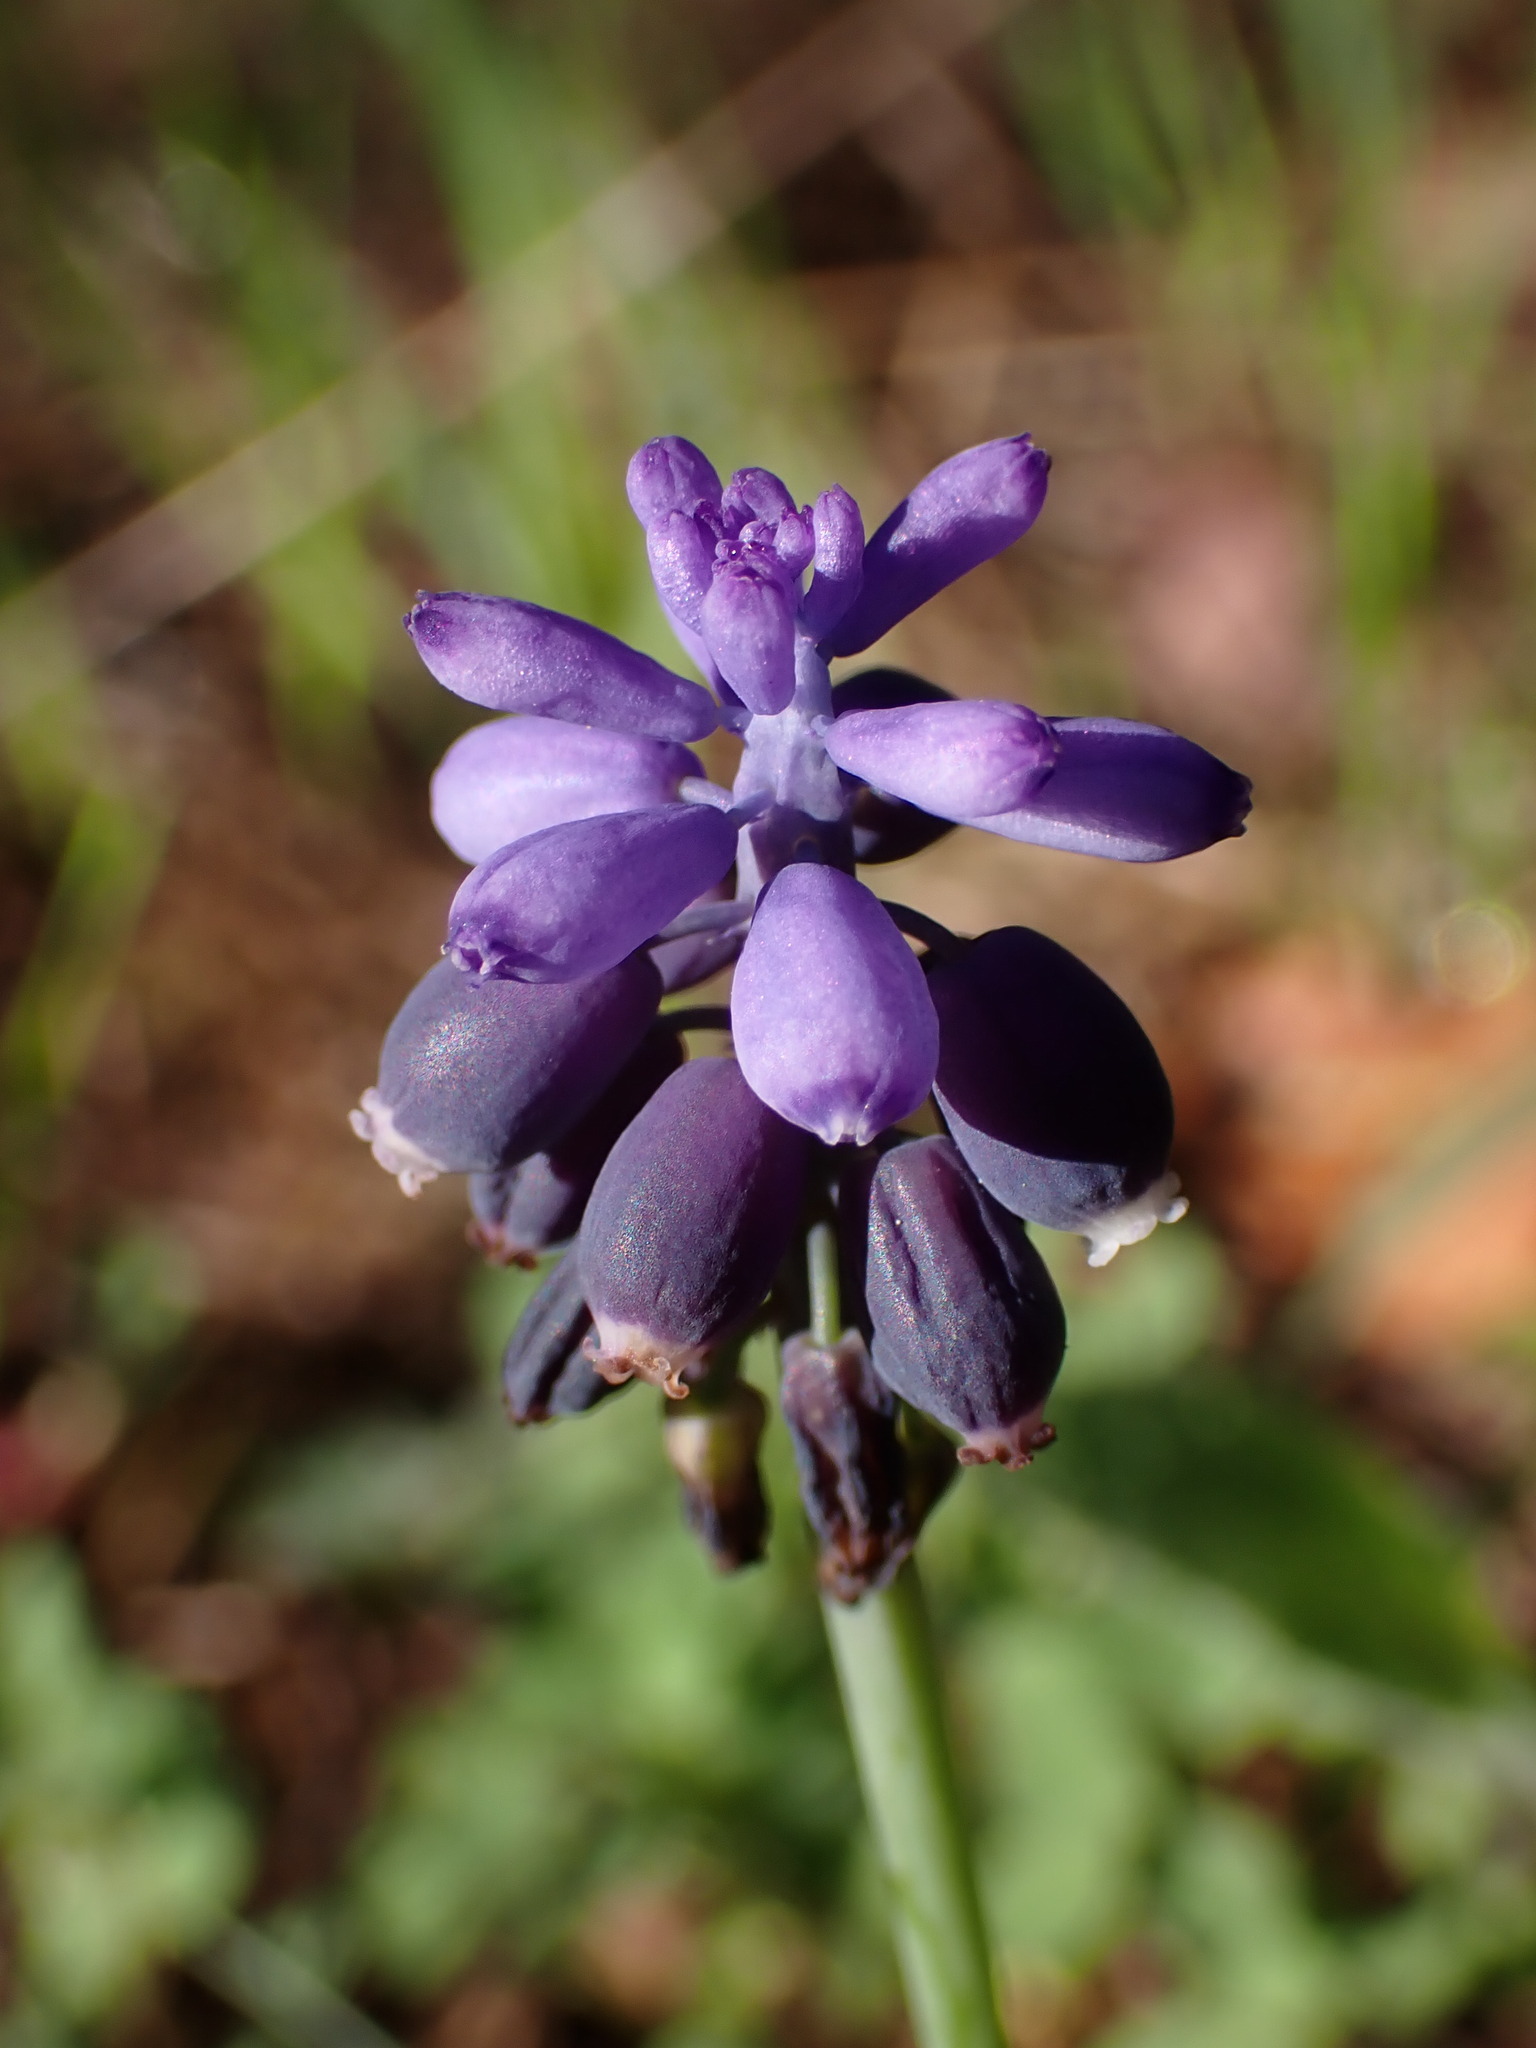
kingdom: Plantae
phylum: Tracheophyta
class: Liliopsida
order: Asparagales
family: Asparagaceae
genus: Muscari
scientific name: Muscari neglectum
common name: Grape-hyacinth
